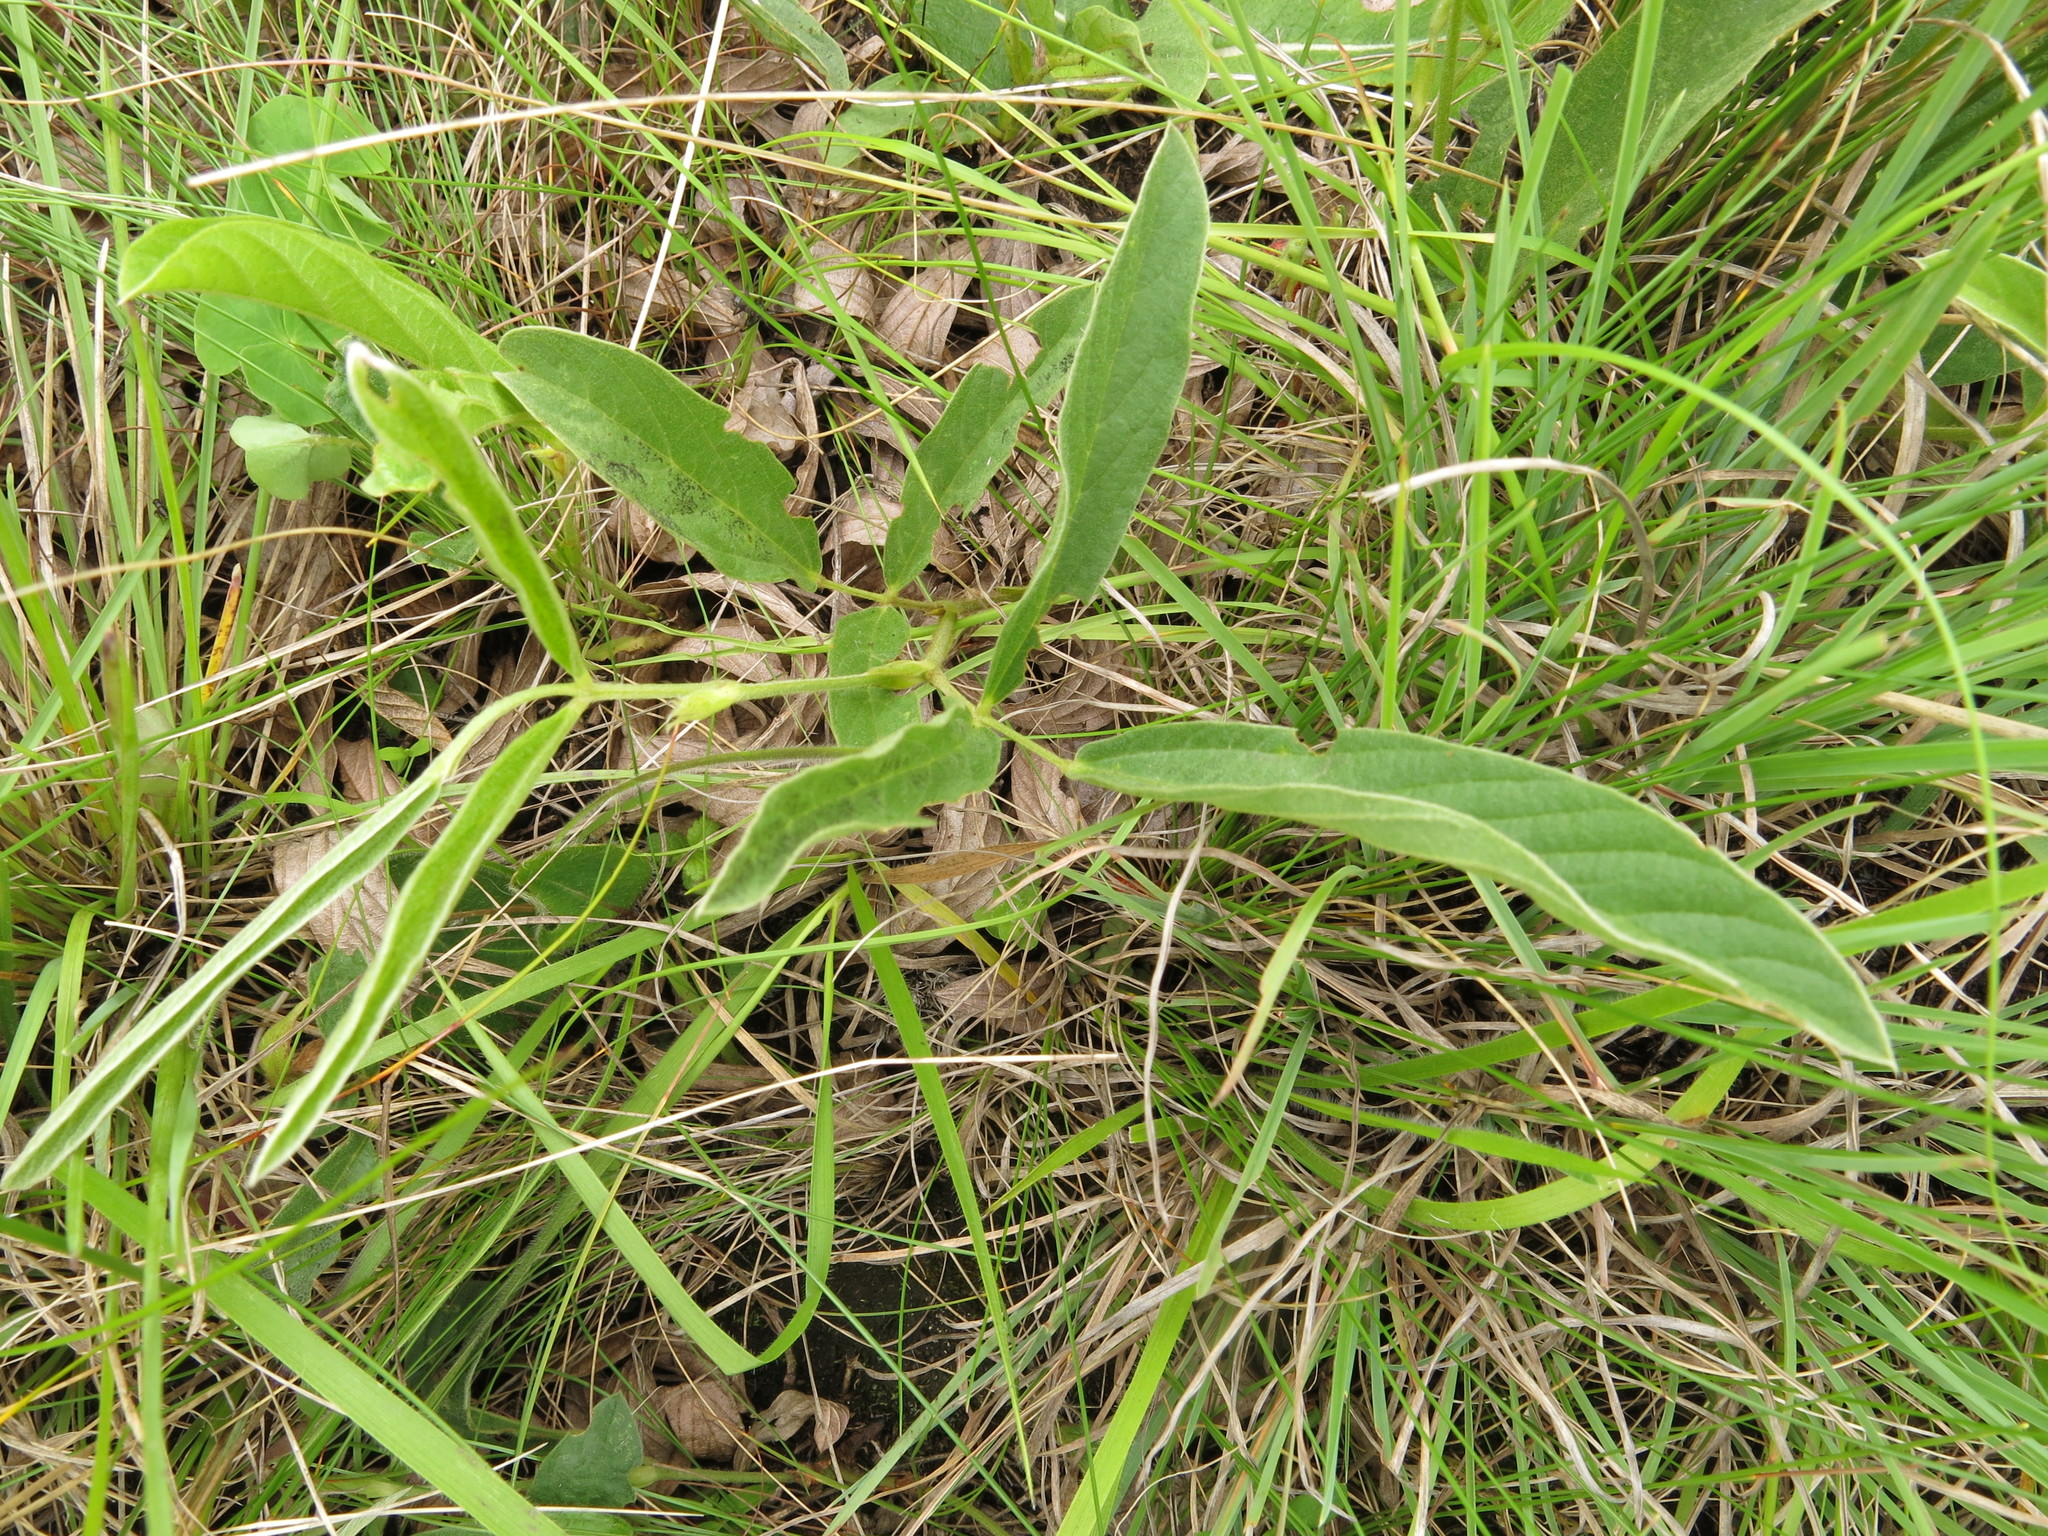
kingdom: Plantae
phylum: Tracheophyta
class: Magnoliopsida
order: Fabales
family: Fabaceae
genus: Eriosema
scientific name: Eriosema distinctum
